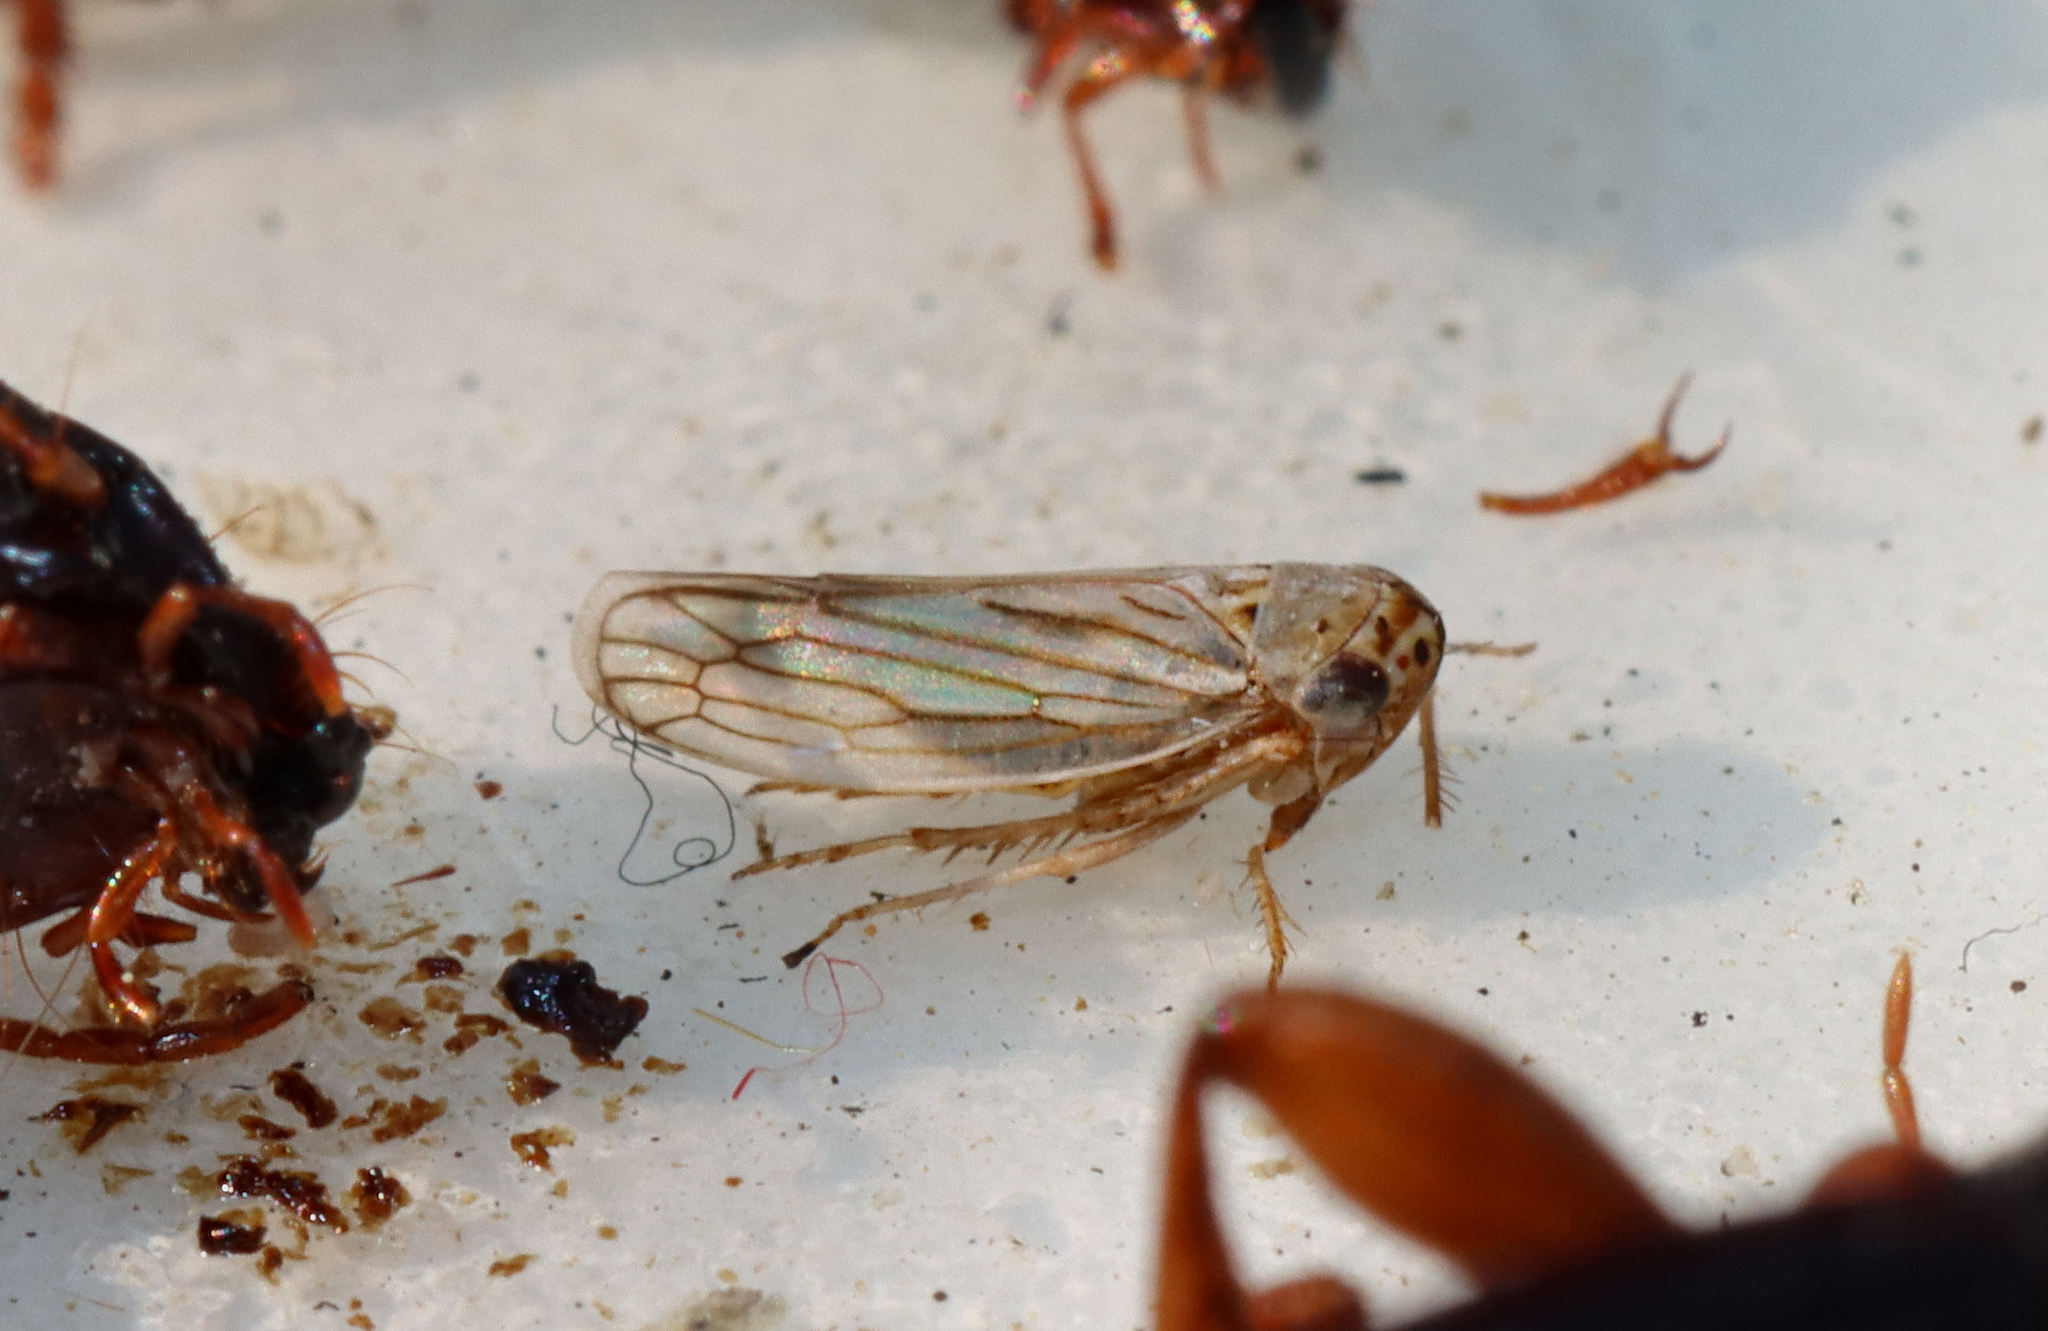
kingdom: Animalia
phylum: Arthropoda
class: Insecta
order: Hemiptera
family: Cicadellidae
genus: Exitianus
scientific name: Exitianus exitiosus
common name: Gray lawn leafhopper
